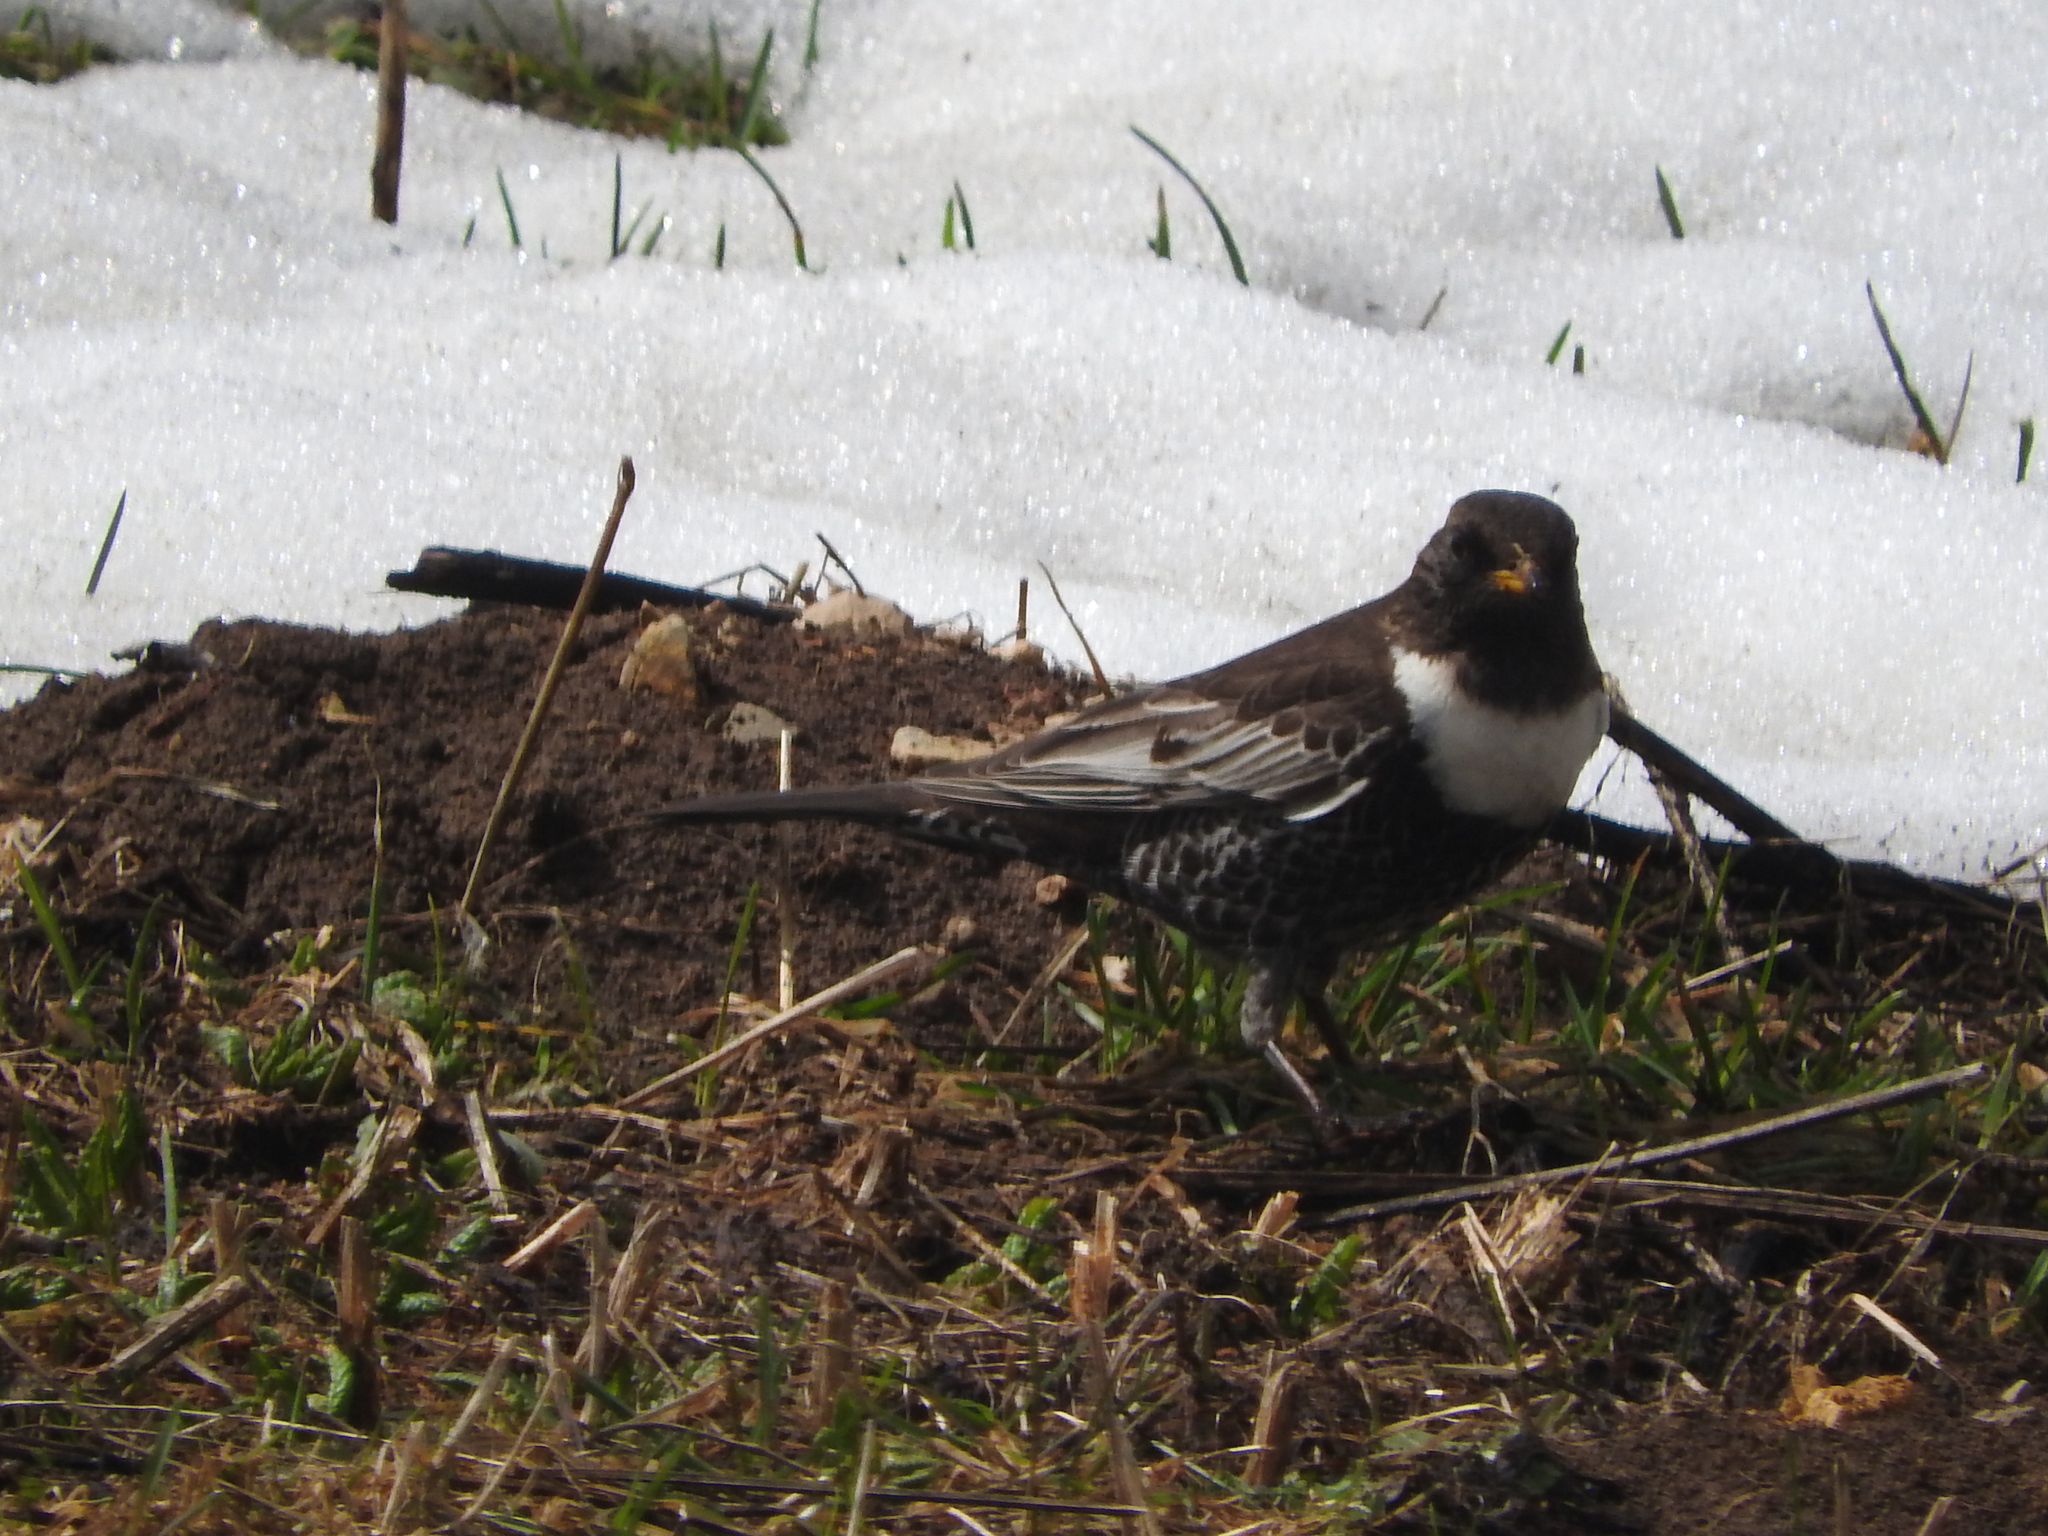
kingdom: Animalia
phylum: Chordata
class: Aves
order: Passeriformes
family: Turdidae
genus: Turdus
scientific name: Turdus torquatus
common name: Ring ouzel
